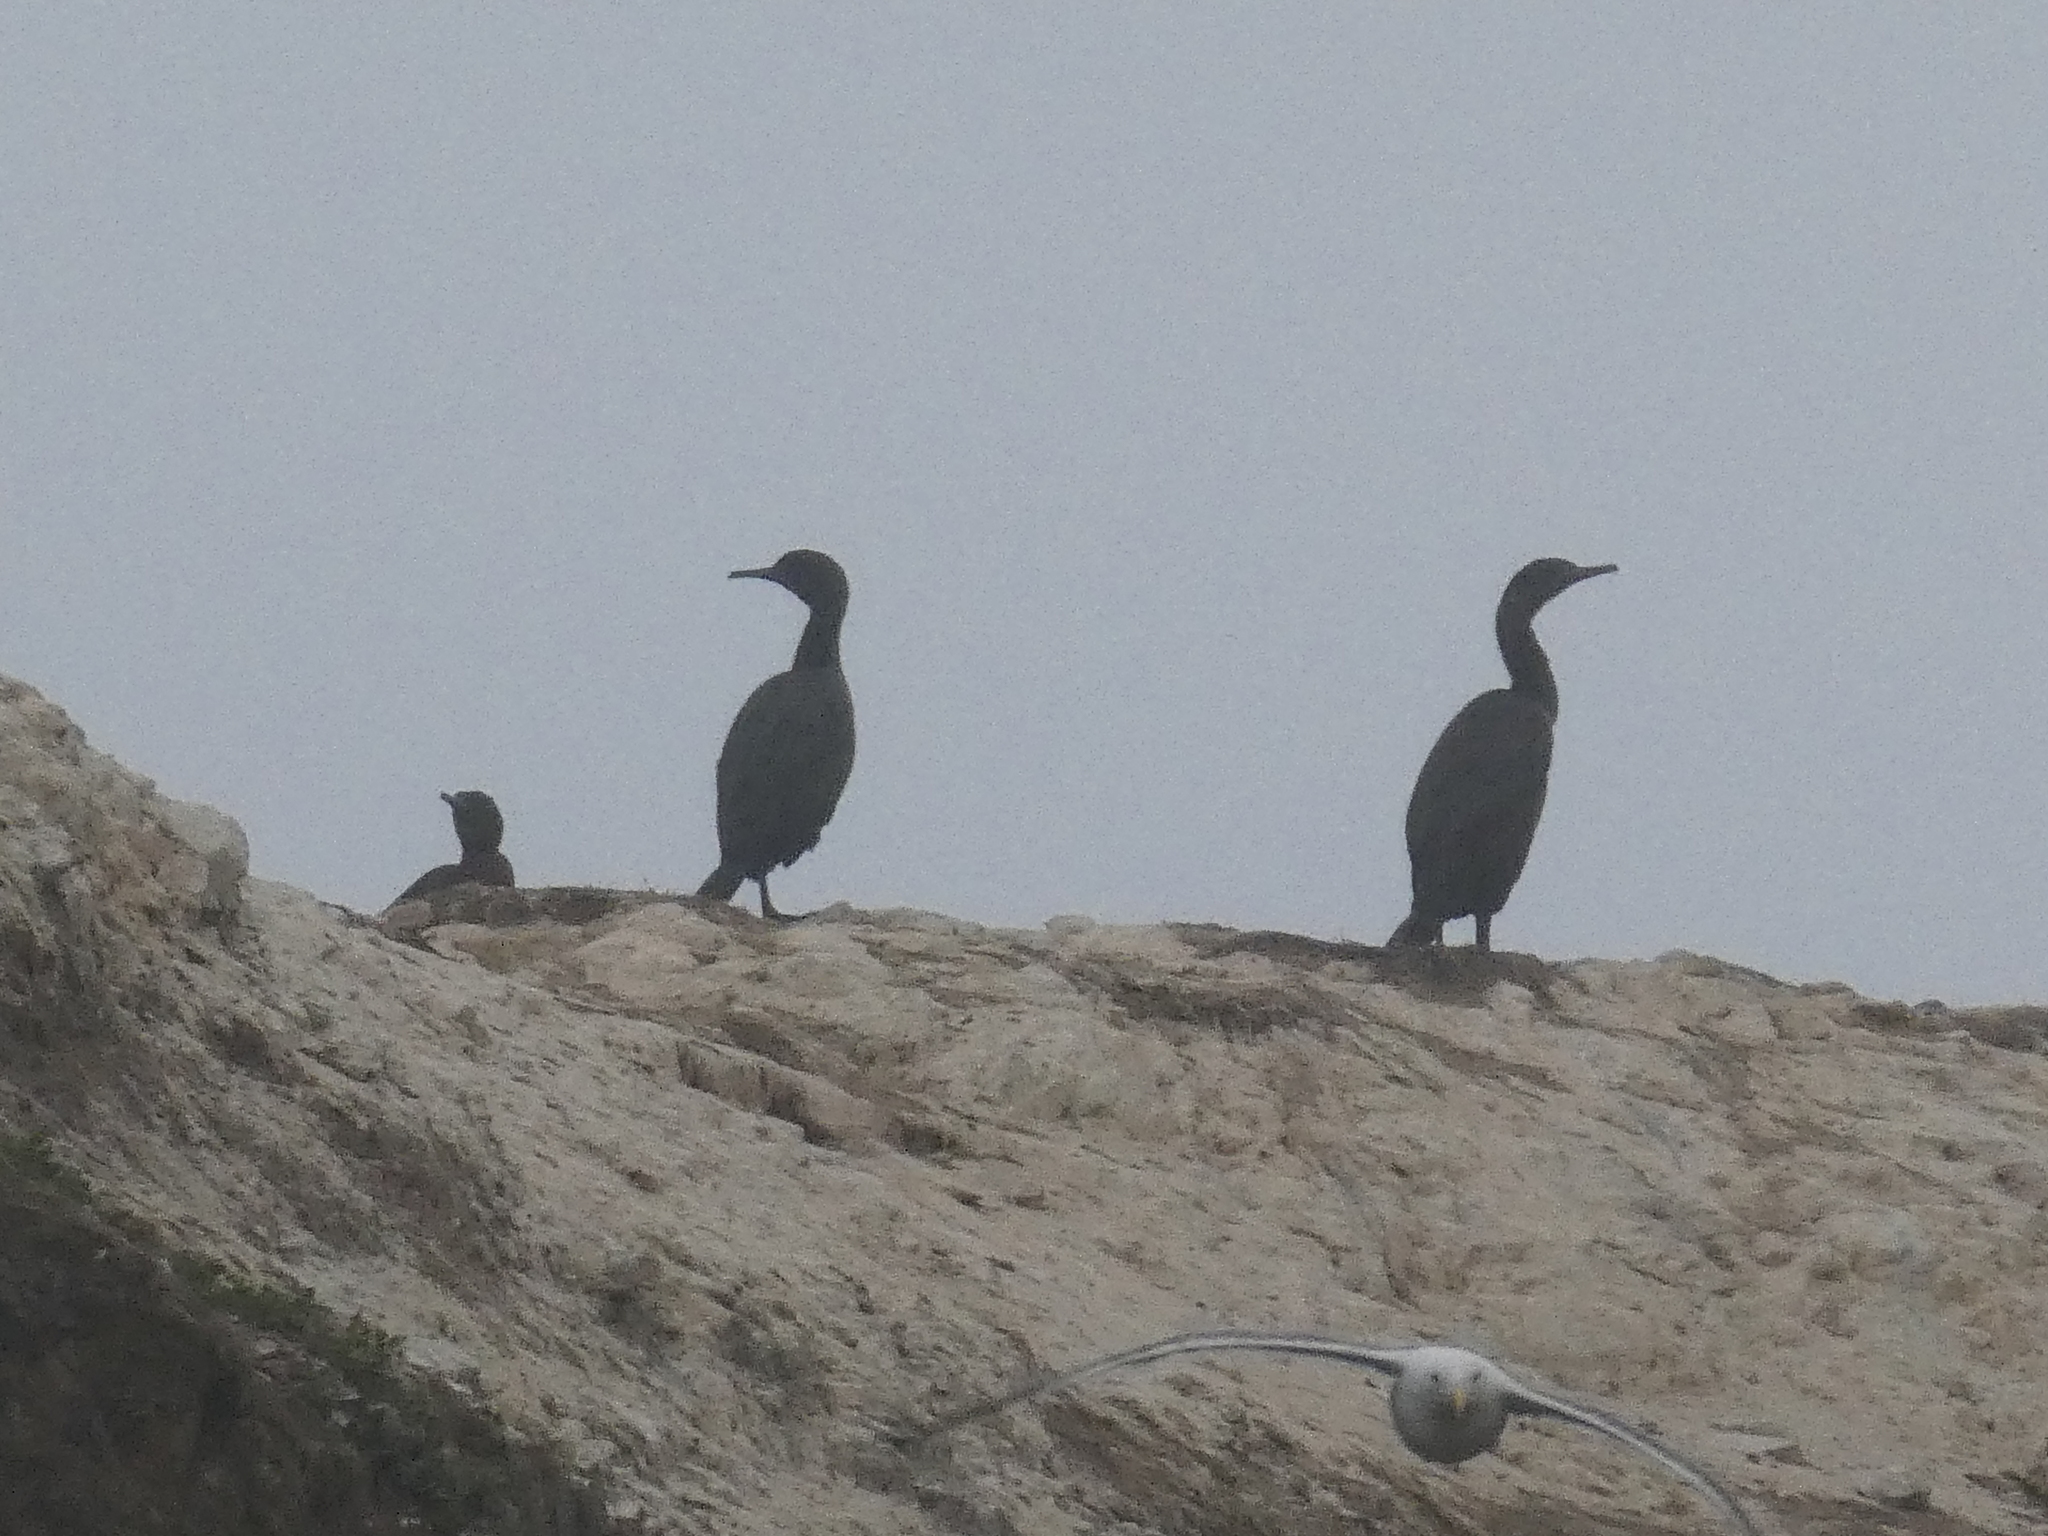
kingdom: Animalia
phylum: Chordata
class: Aves
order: Suliformes
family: Phalacrocoracidae
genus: Phalacrocorax
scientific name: Phalacrocorax pelagicus
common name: Pelagic cormorant
